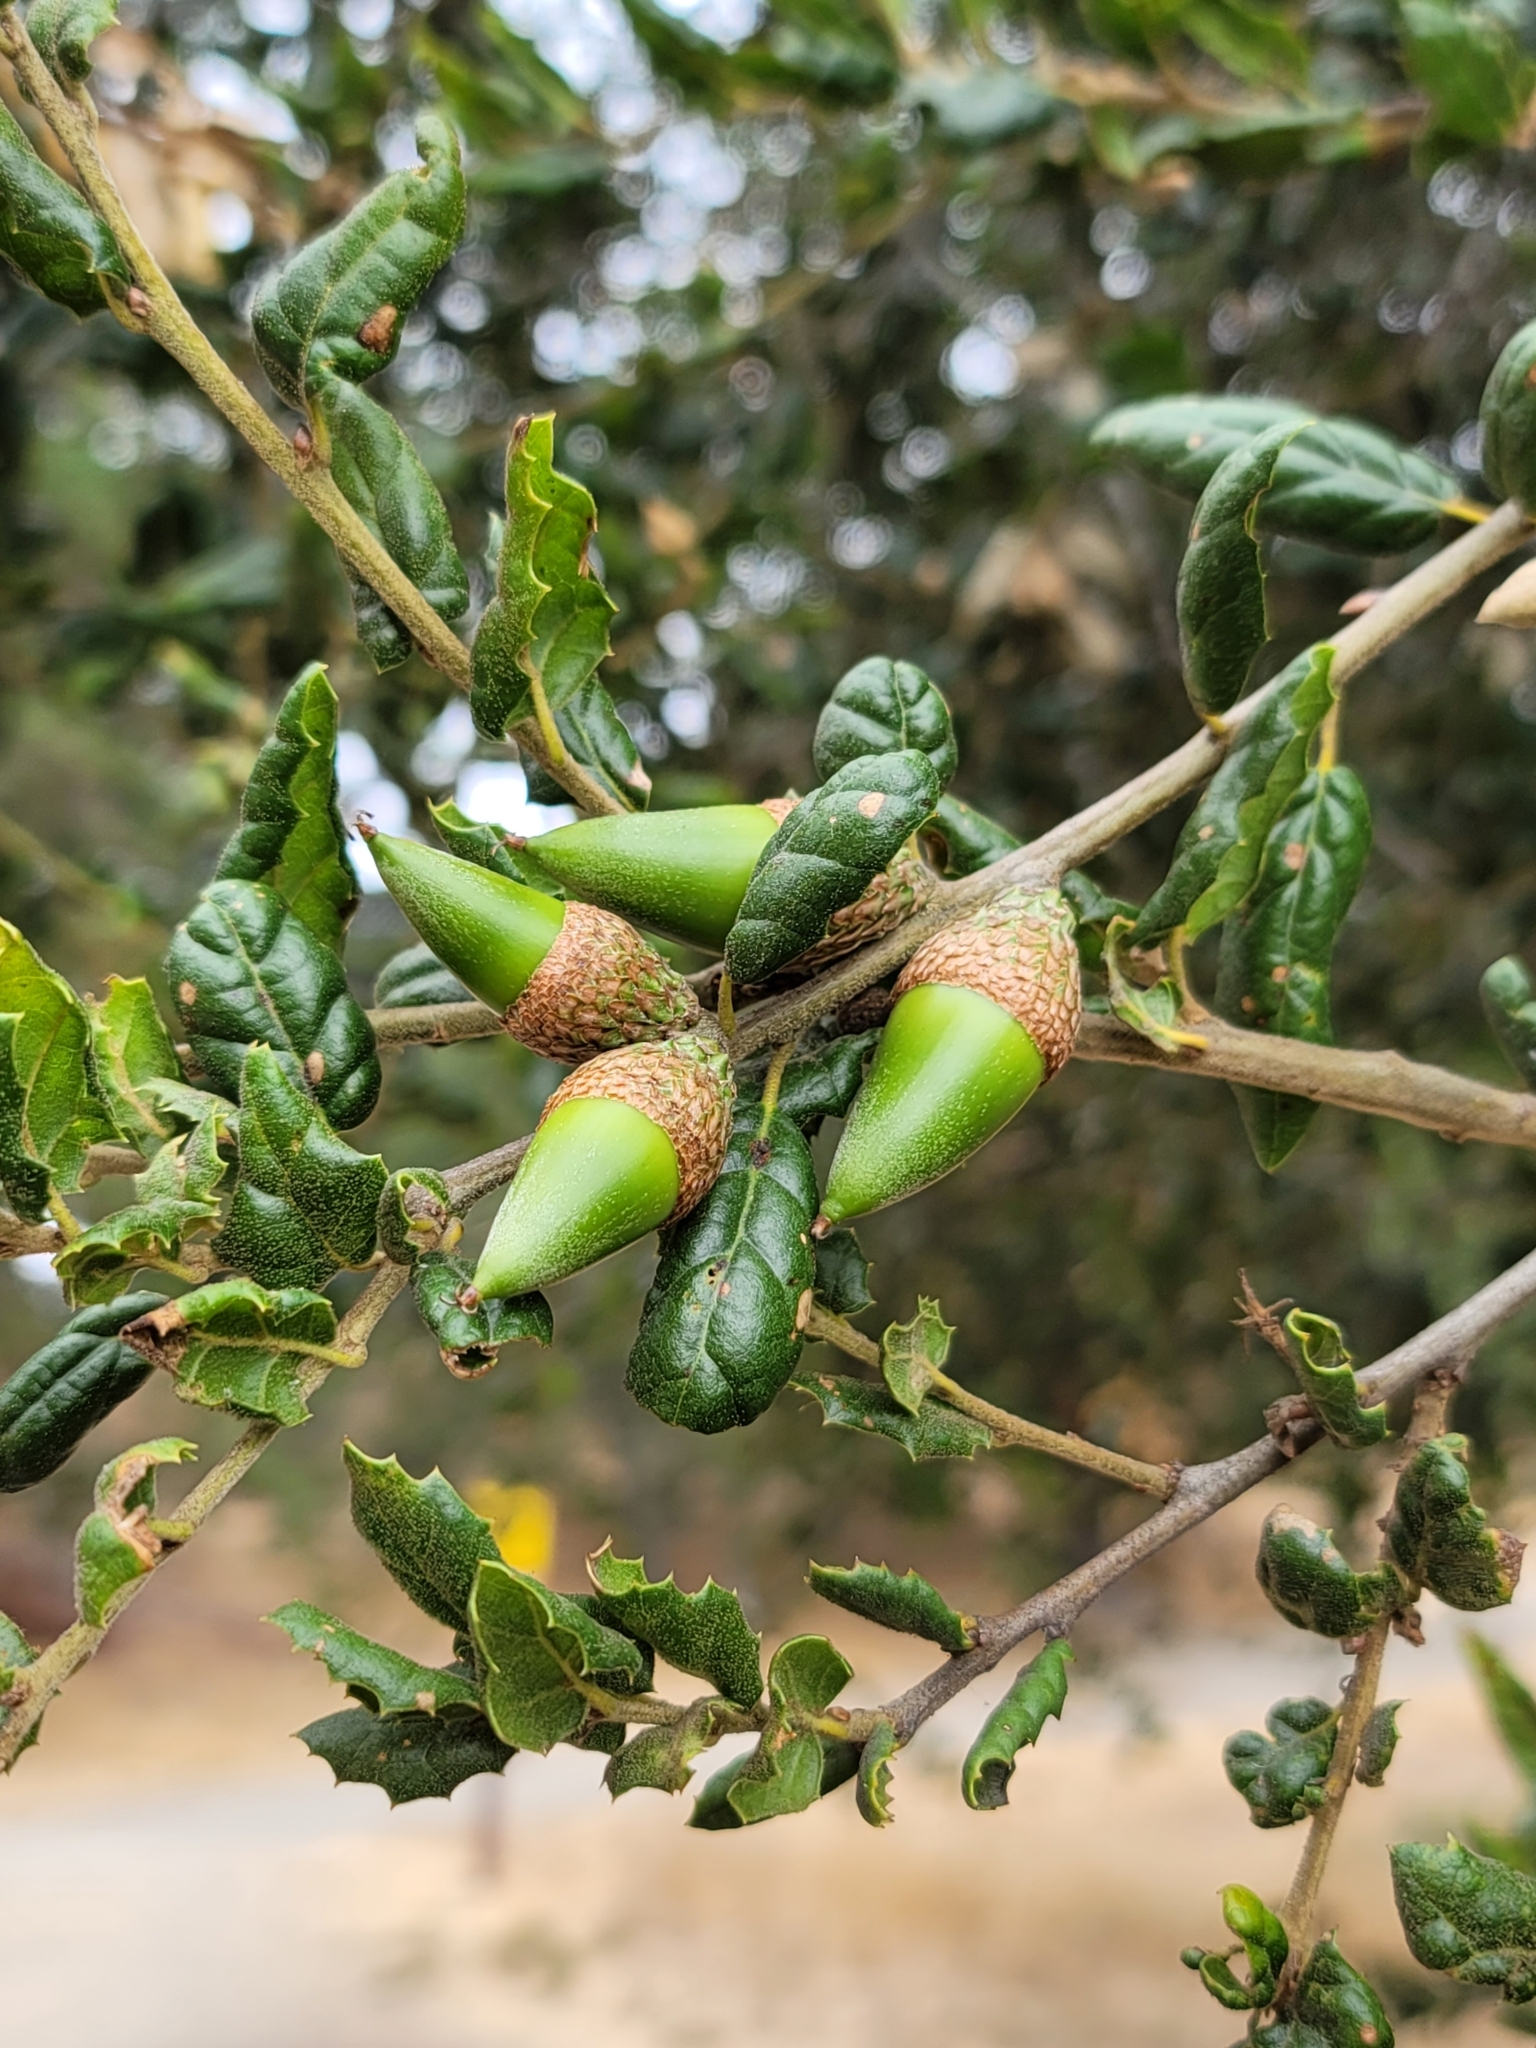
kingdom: Plantae
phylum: Tracheophyta
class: Magnoliopsida
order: Fagales
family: Fagaceae
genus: Quercus
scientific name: Quercus agrifolia
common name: California live oak
